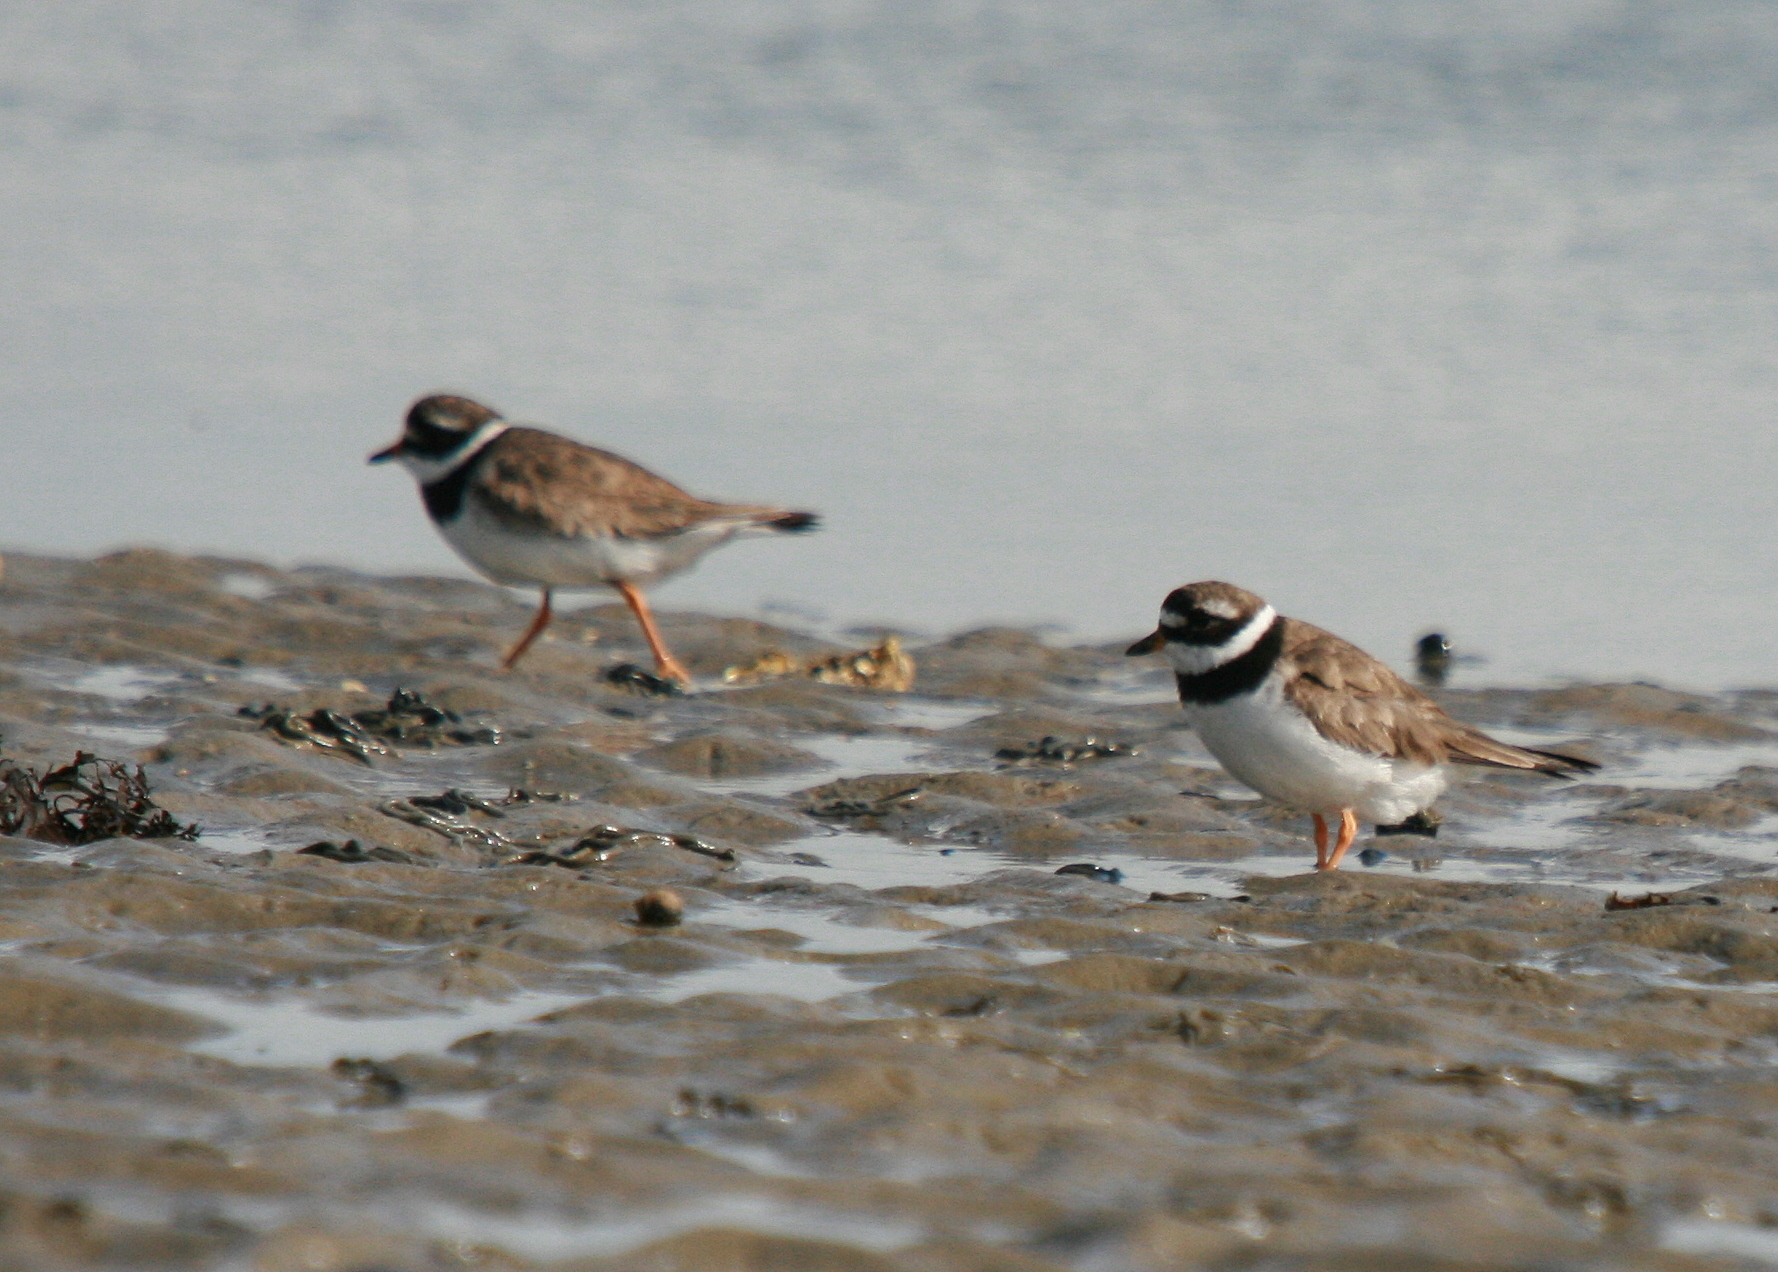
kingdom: Animalia
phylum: Chordata
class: Aves
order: Charadriiformes
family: Charadriidae
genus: Charadrius
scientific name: Charadrius hiaticula
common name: Common ringed plover
